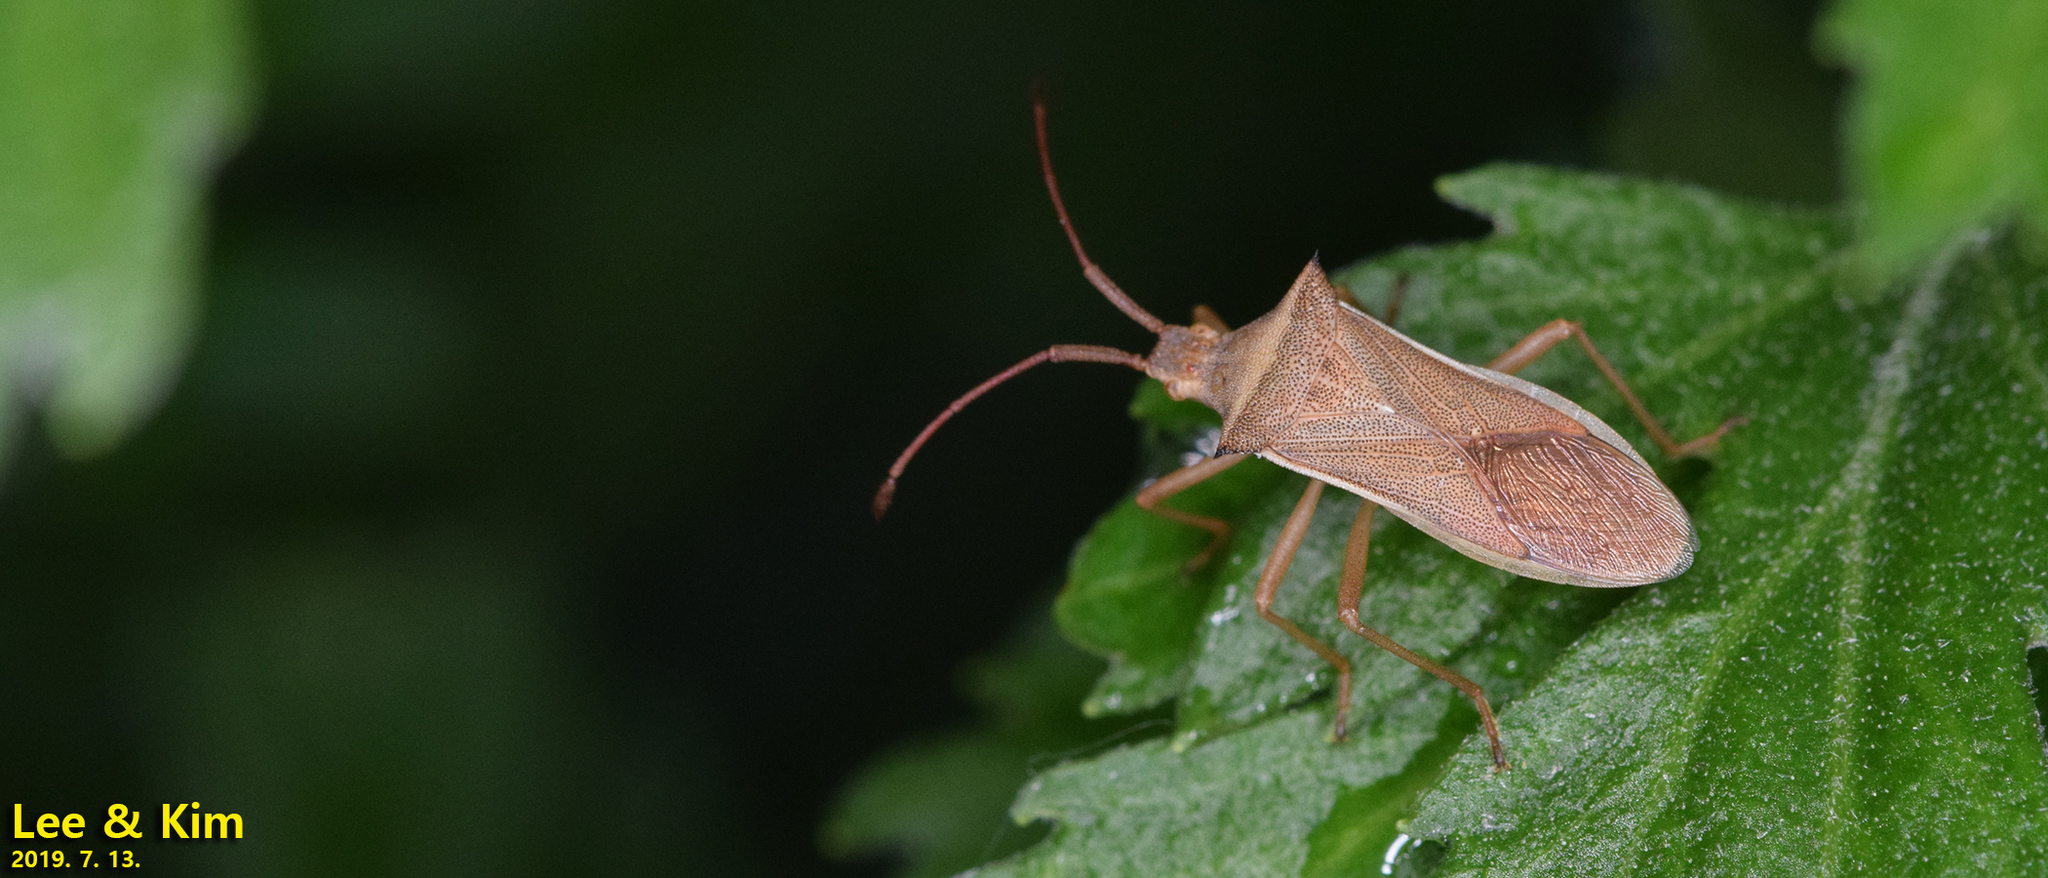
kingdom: Animalia
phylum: Arthropoda
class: Insecta
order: Hemiptera
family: Coreidae
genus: Cletus
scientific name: Cletus punctiger
